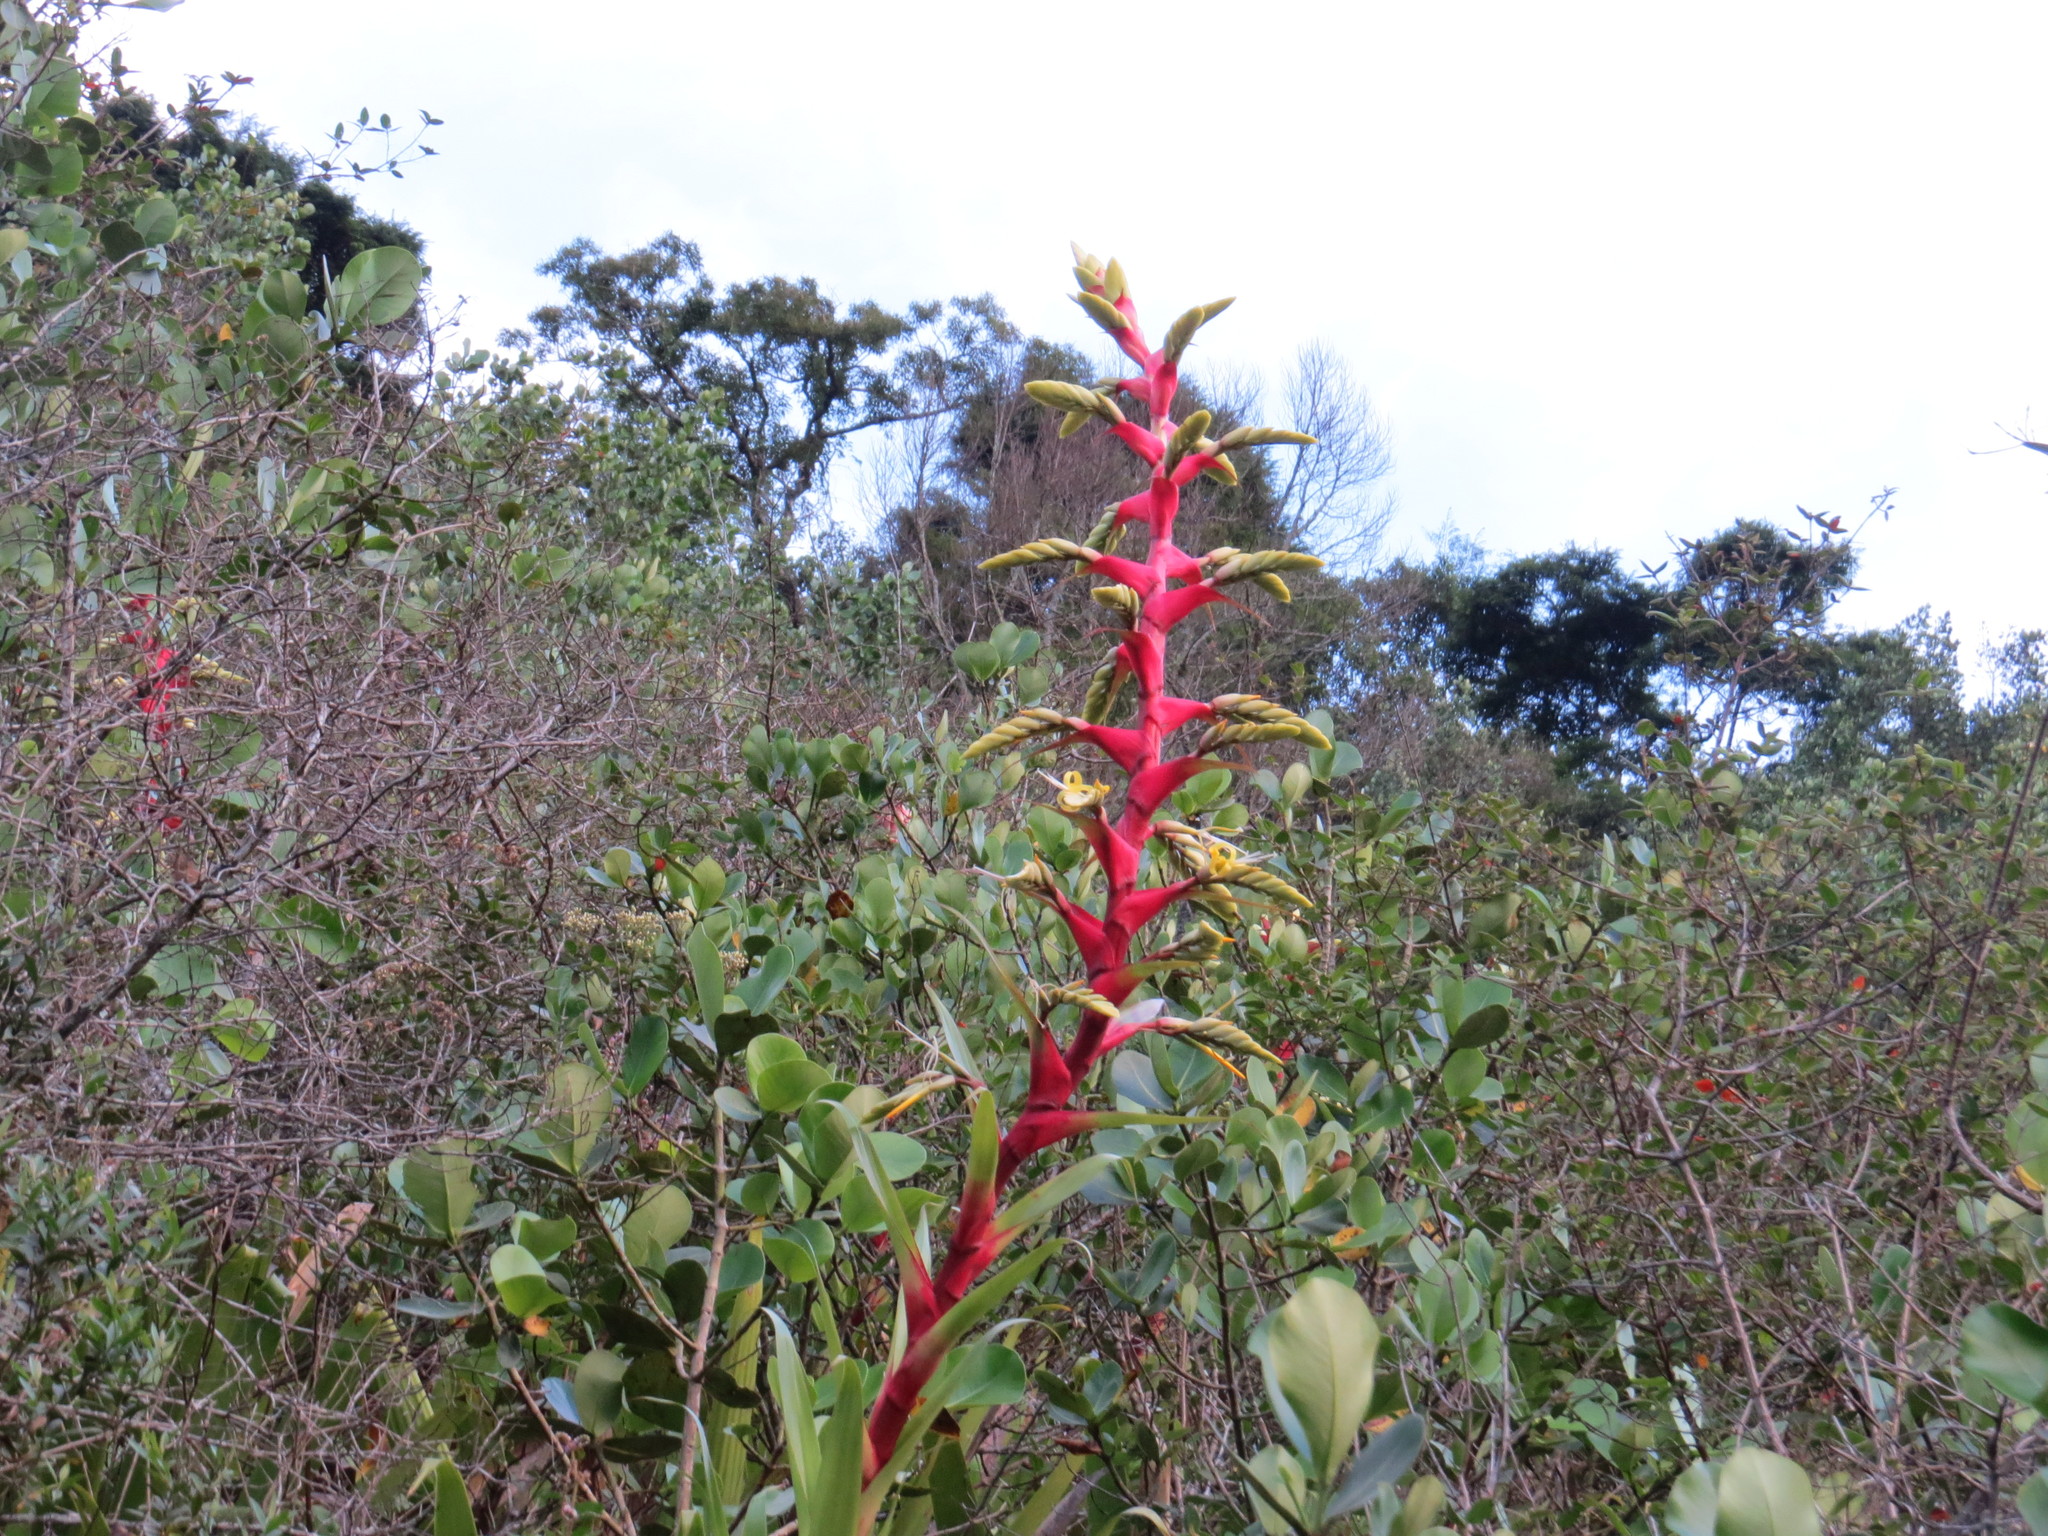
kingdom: Plantae
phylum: Tracheophyta
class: Liliopsida
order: Poales
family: Bromeliaceae
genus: Alcantarea
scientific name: Alcantarea geniculata
